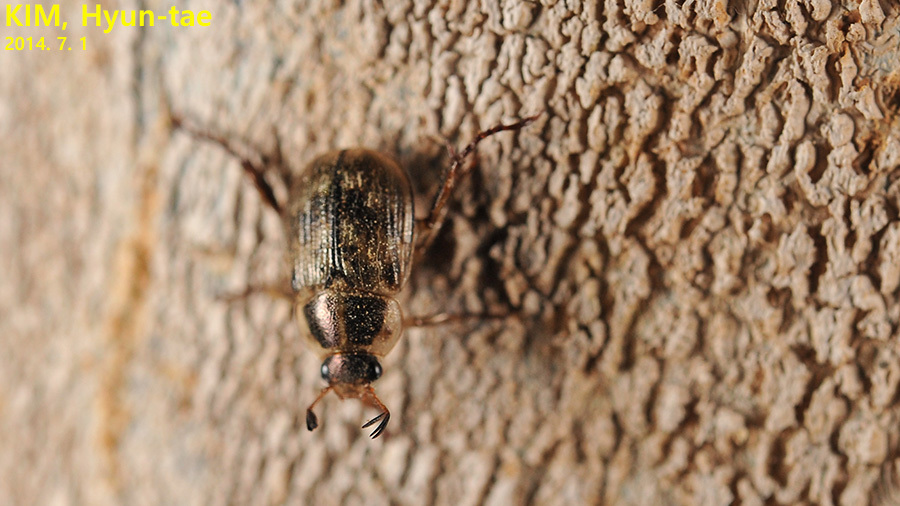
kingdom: Animalia
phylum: Arthropoda
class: Insecta
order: Coleoptera
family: Scarabaeidae
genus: Exomala
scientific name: Exomala orientalis
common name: Oriental beetle
